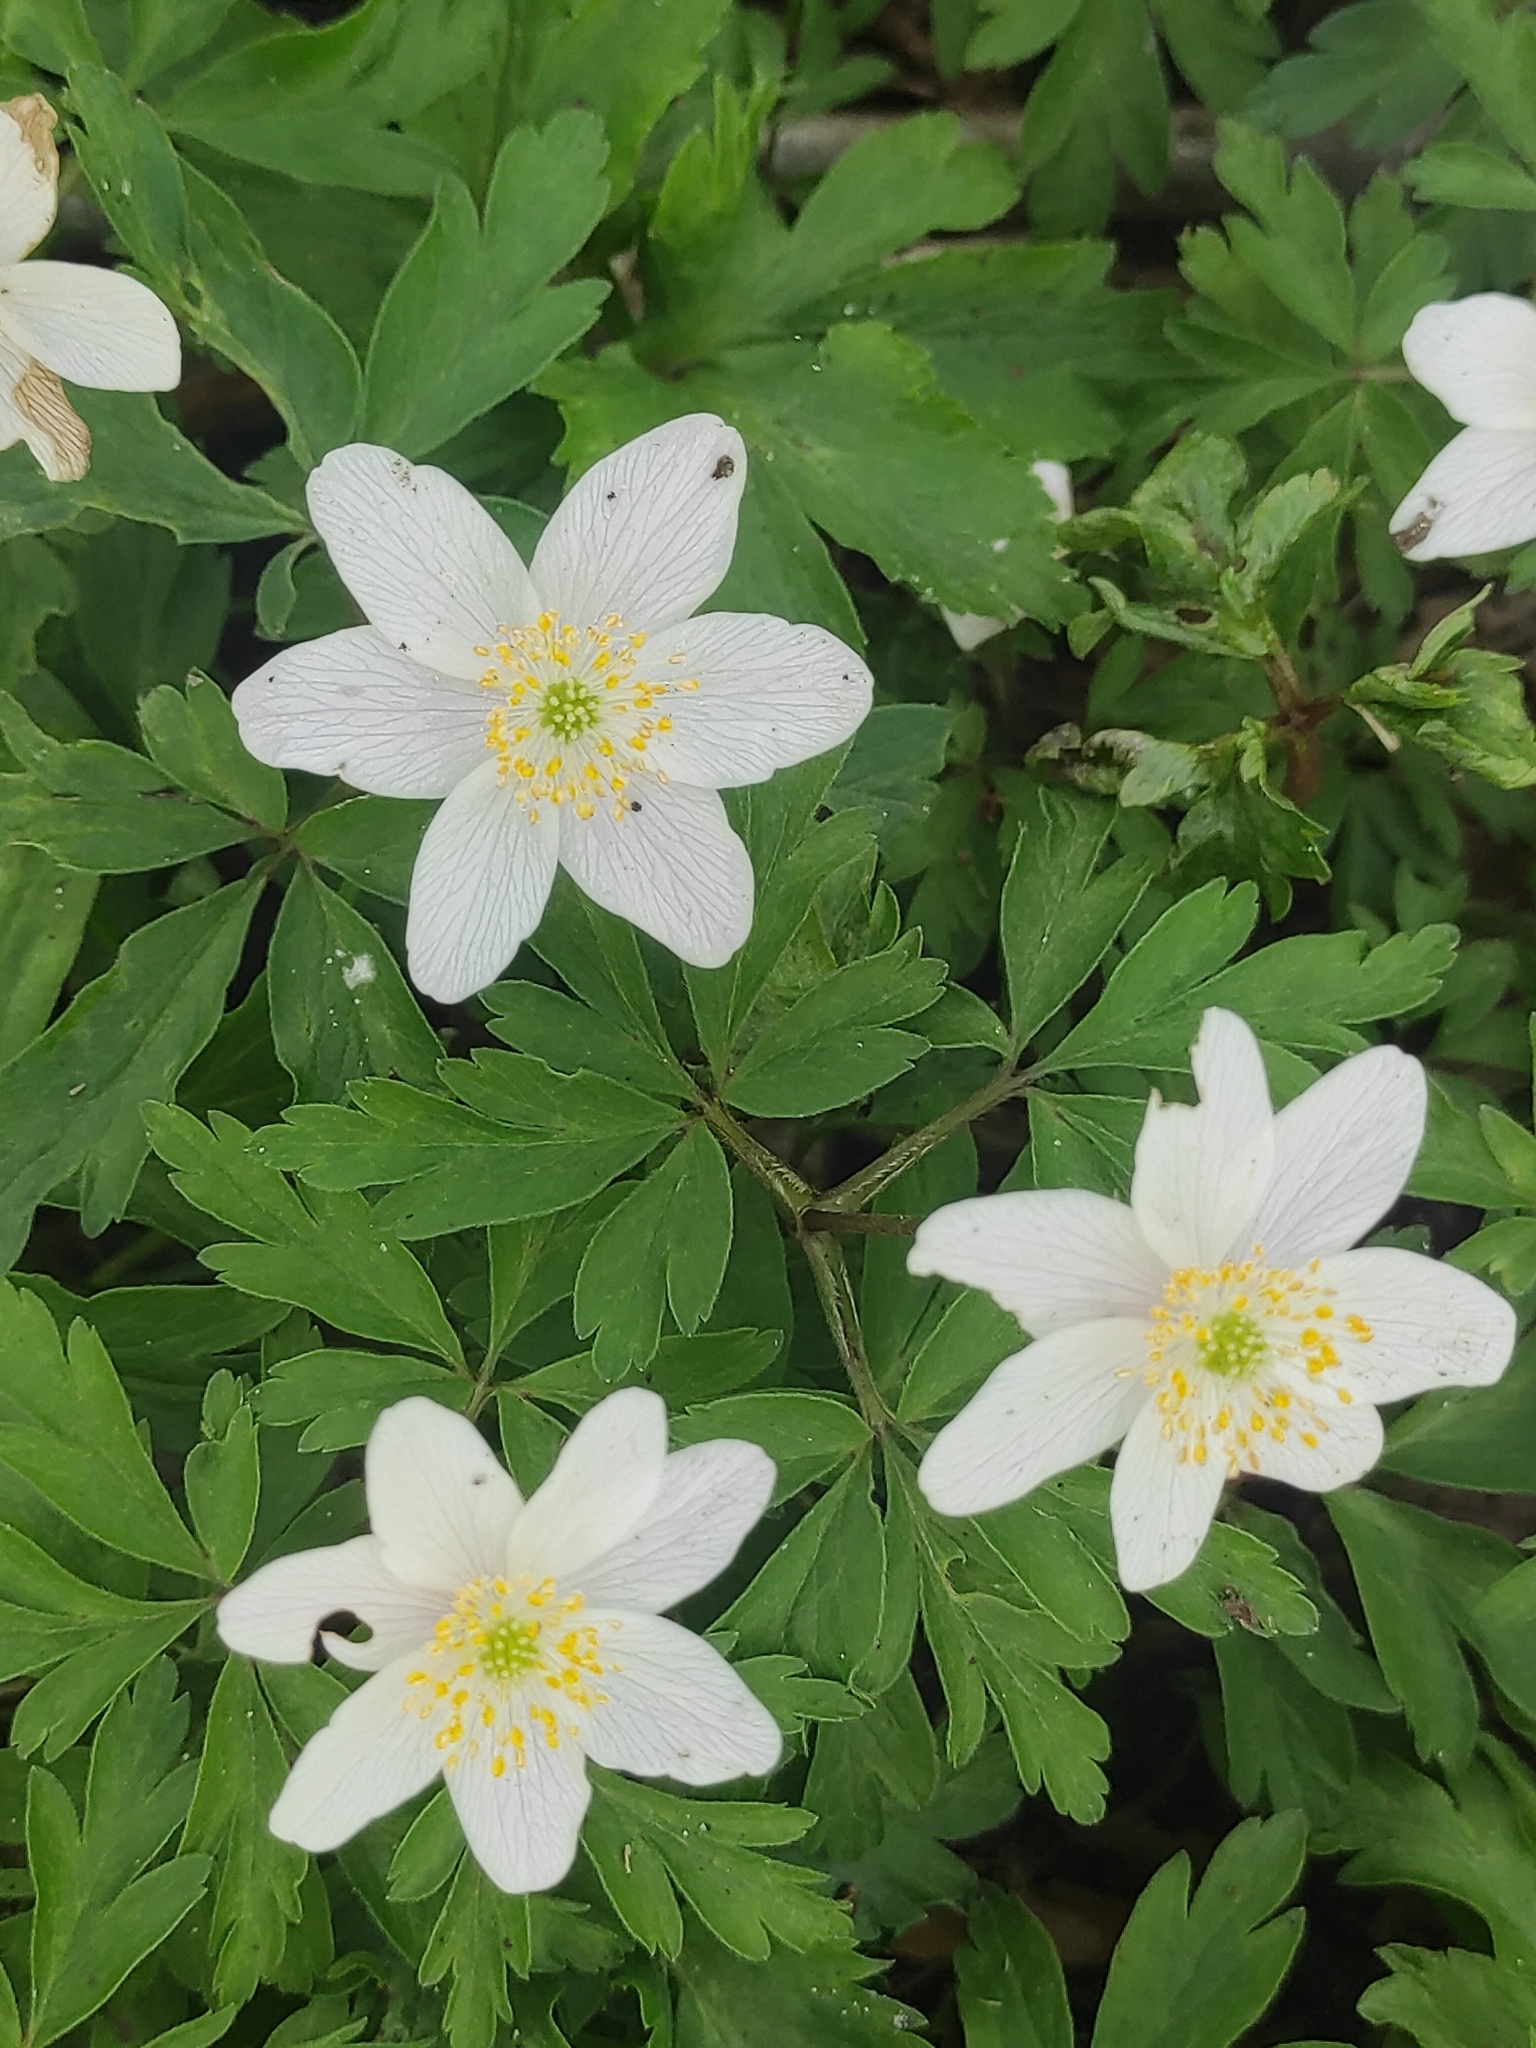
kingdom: Plantae
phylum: Tracheophyta
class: Magnoliopsida
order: Ranunculales
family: Ranunculaceae
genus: Anemone
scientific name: Anemone nemorosa
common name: Wood anemone
